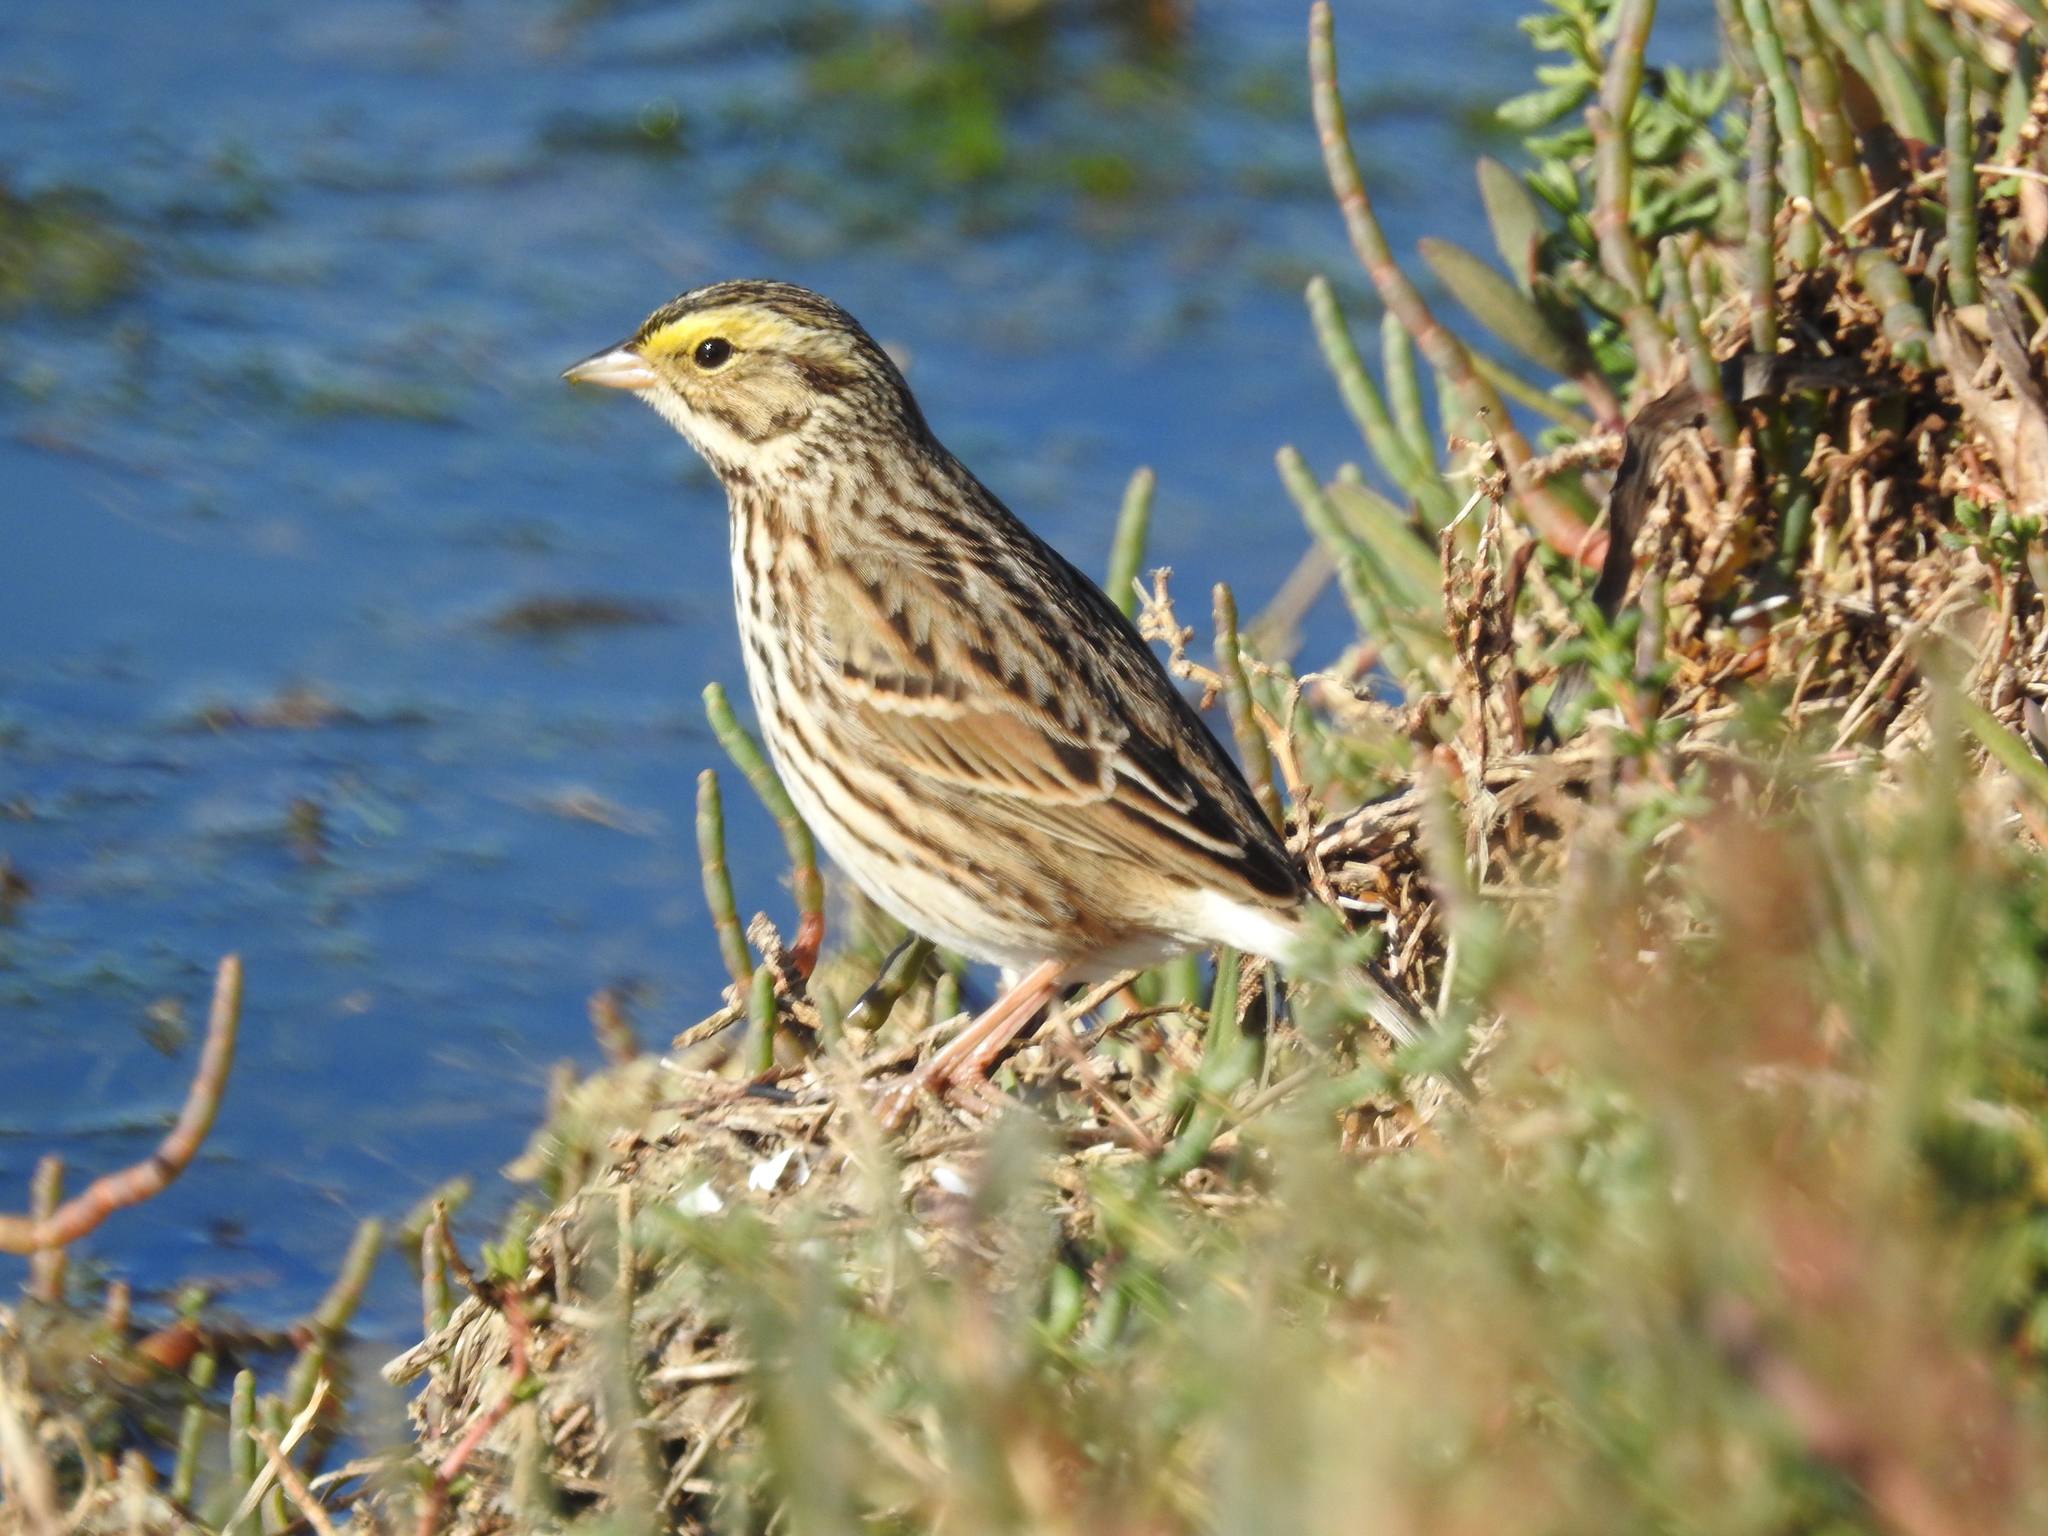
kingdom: Animalia
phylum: Chordata
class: Aves
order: Passeriformes
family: Passerellidae
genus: Passerculus
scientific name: Passerculus sandwichensis
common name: Savannah sparrow
